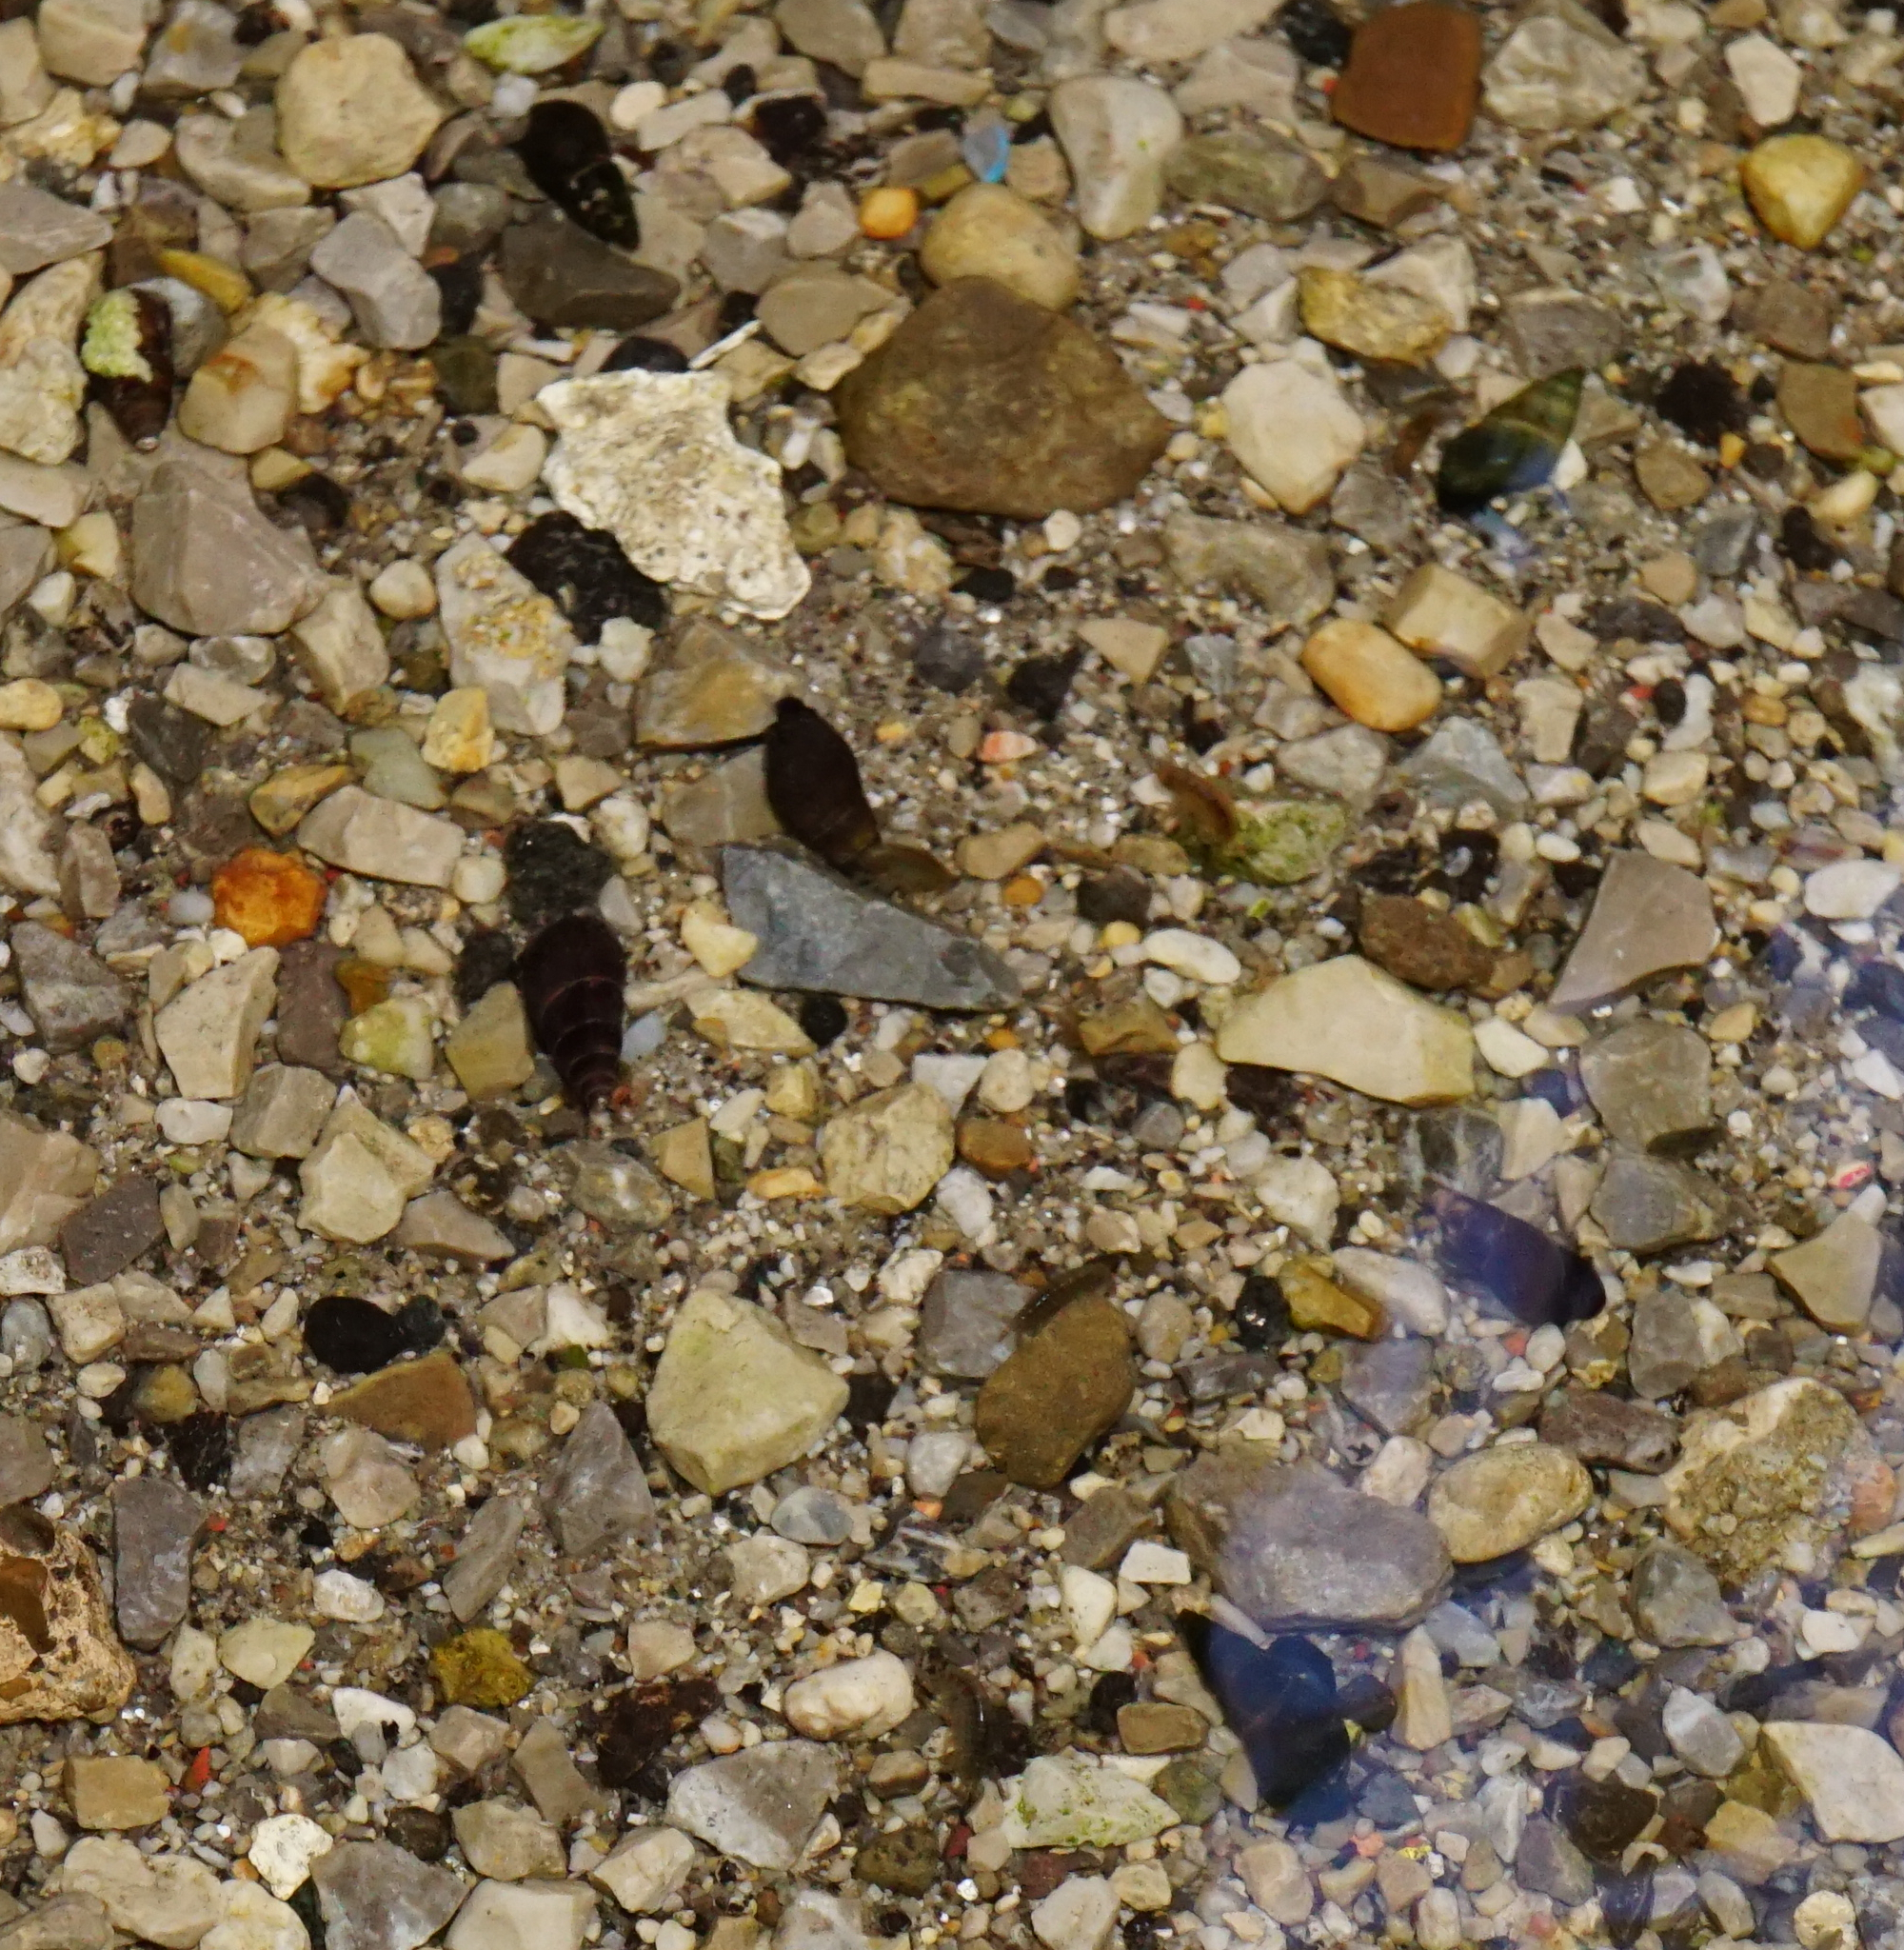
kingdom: Animalia
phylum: Mollusca
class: Gastropoda
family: Melanopsidae
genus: Microcolpia
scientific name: Microcolpia daudebartii
